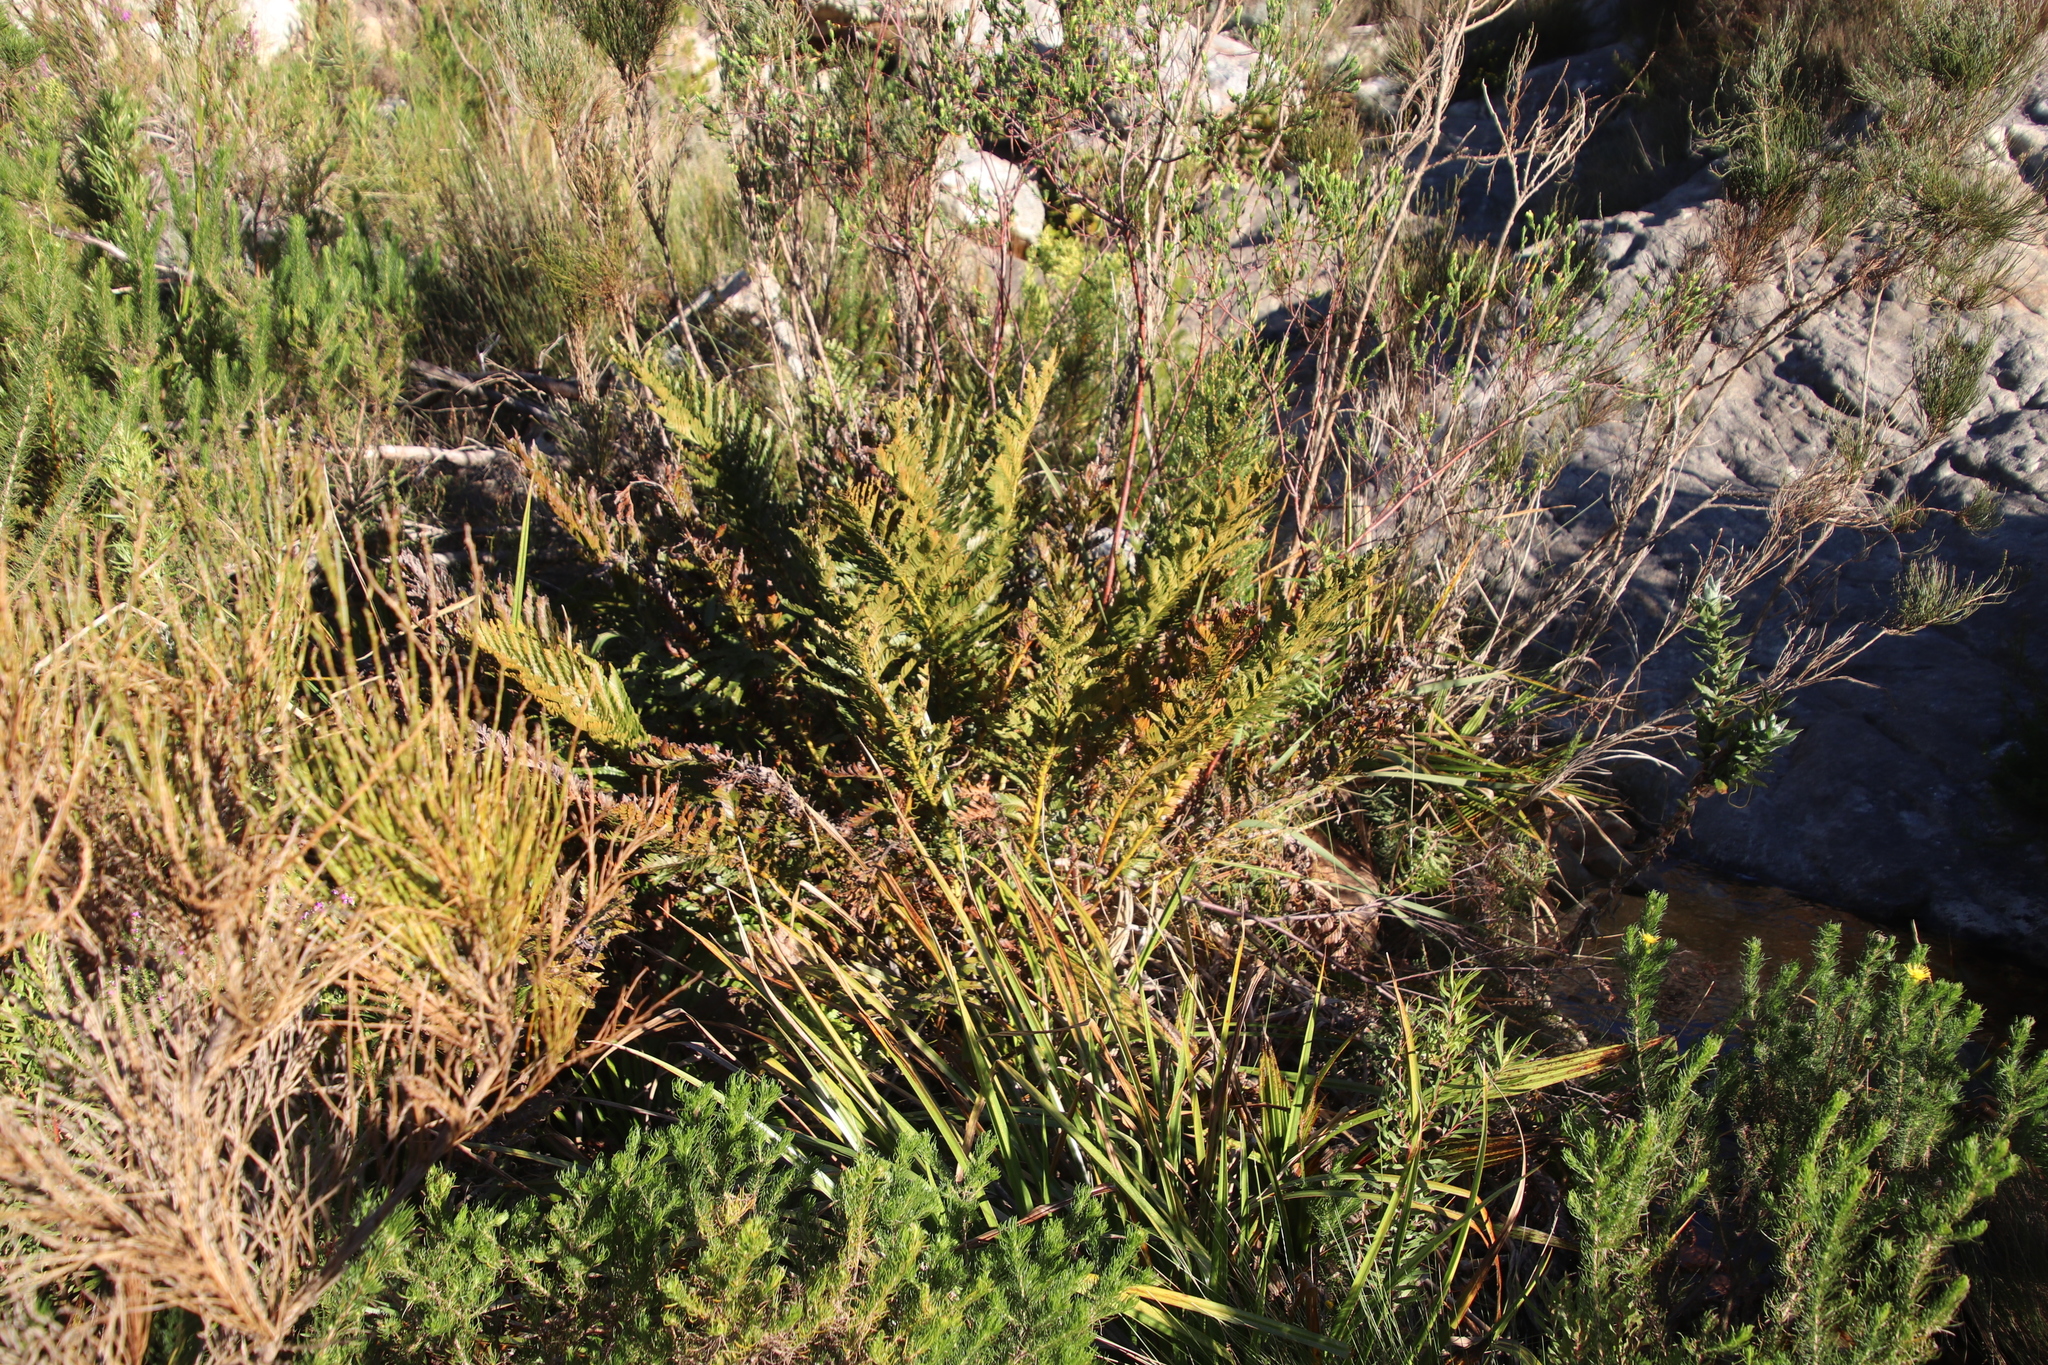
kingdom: Plantae
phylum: Tracheophyta
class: Polypodiopsida
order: Osmundales
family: Osmundaceae
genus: Todea
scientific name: Todea barbara
